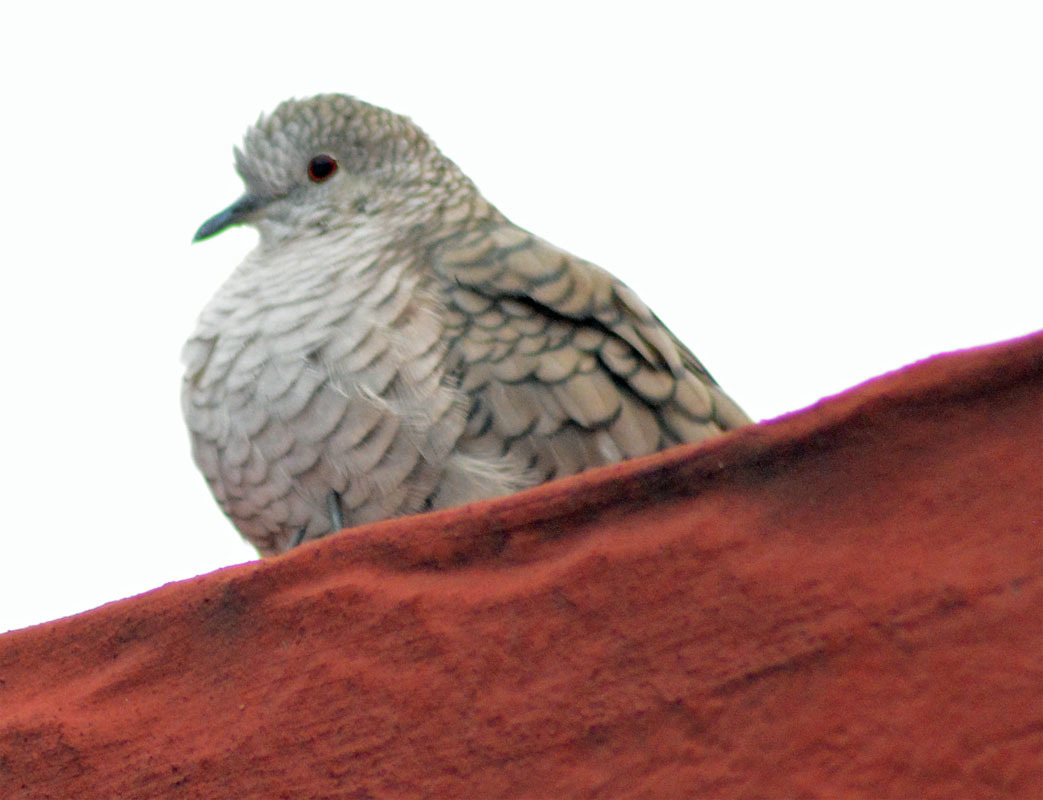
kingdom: Animalia
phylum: Chordata
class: Aves
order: Columbiformes
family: Columbidae
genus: Columbina
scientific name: Columbina inca
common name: Inca dove
